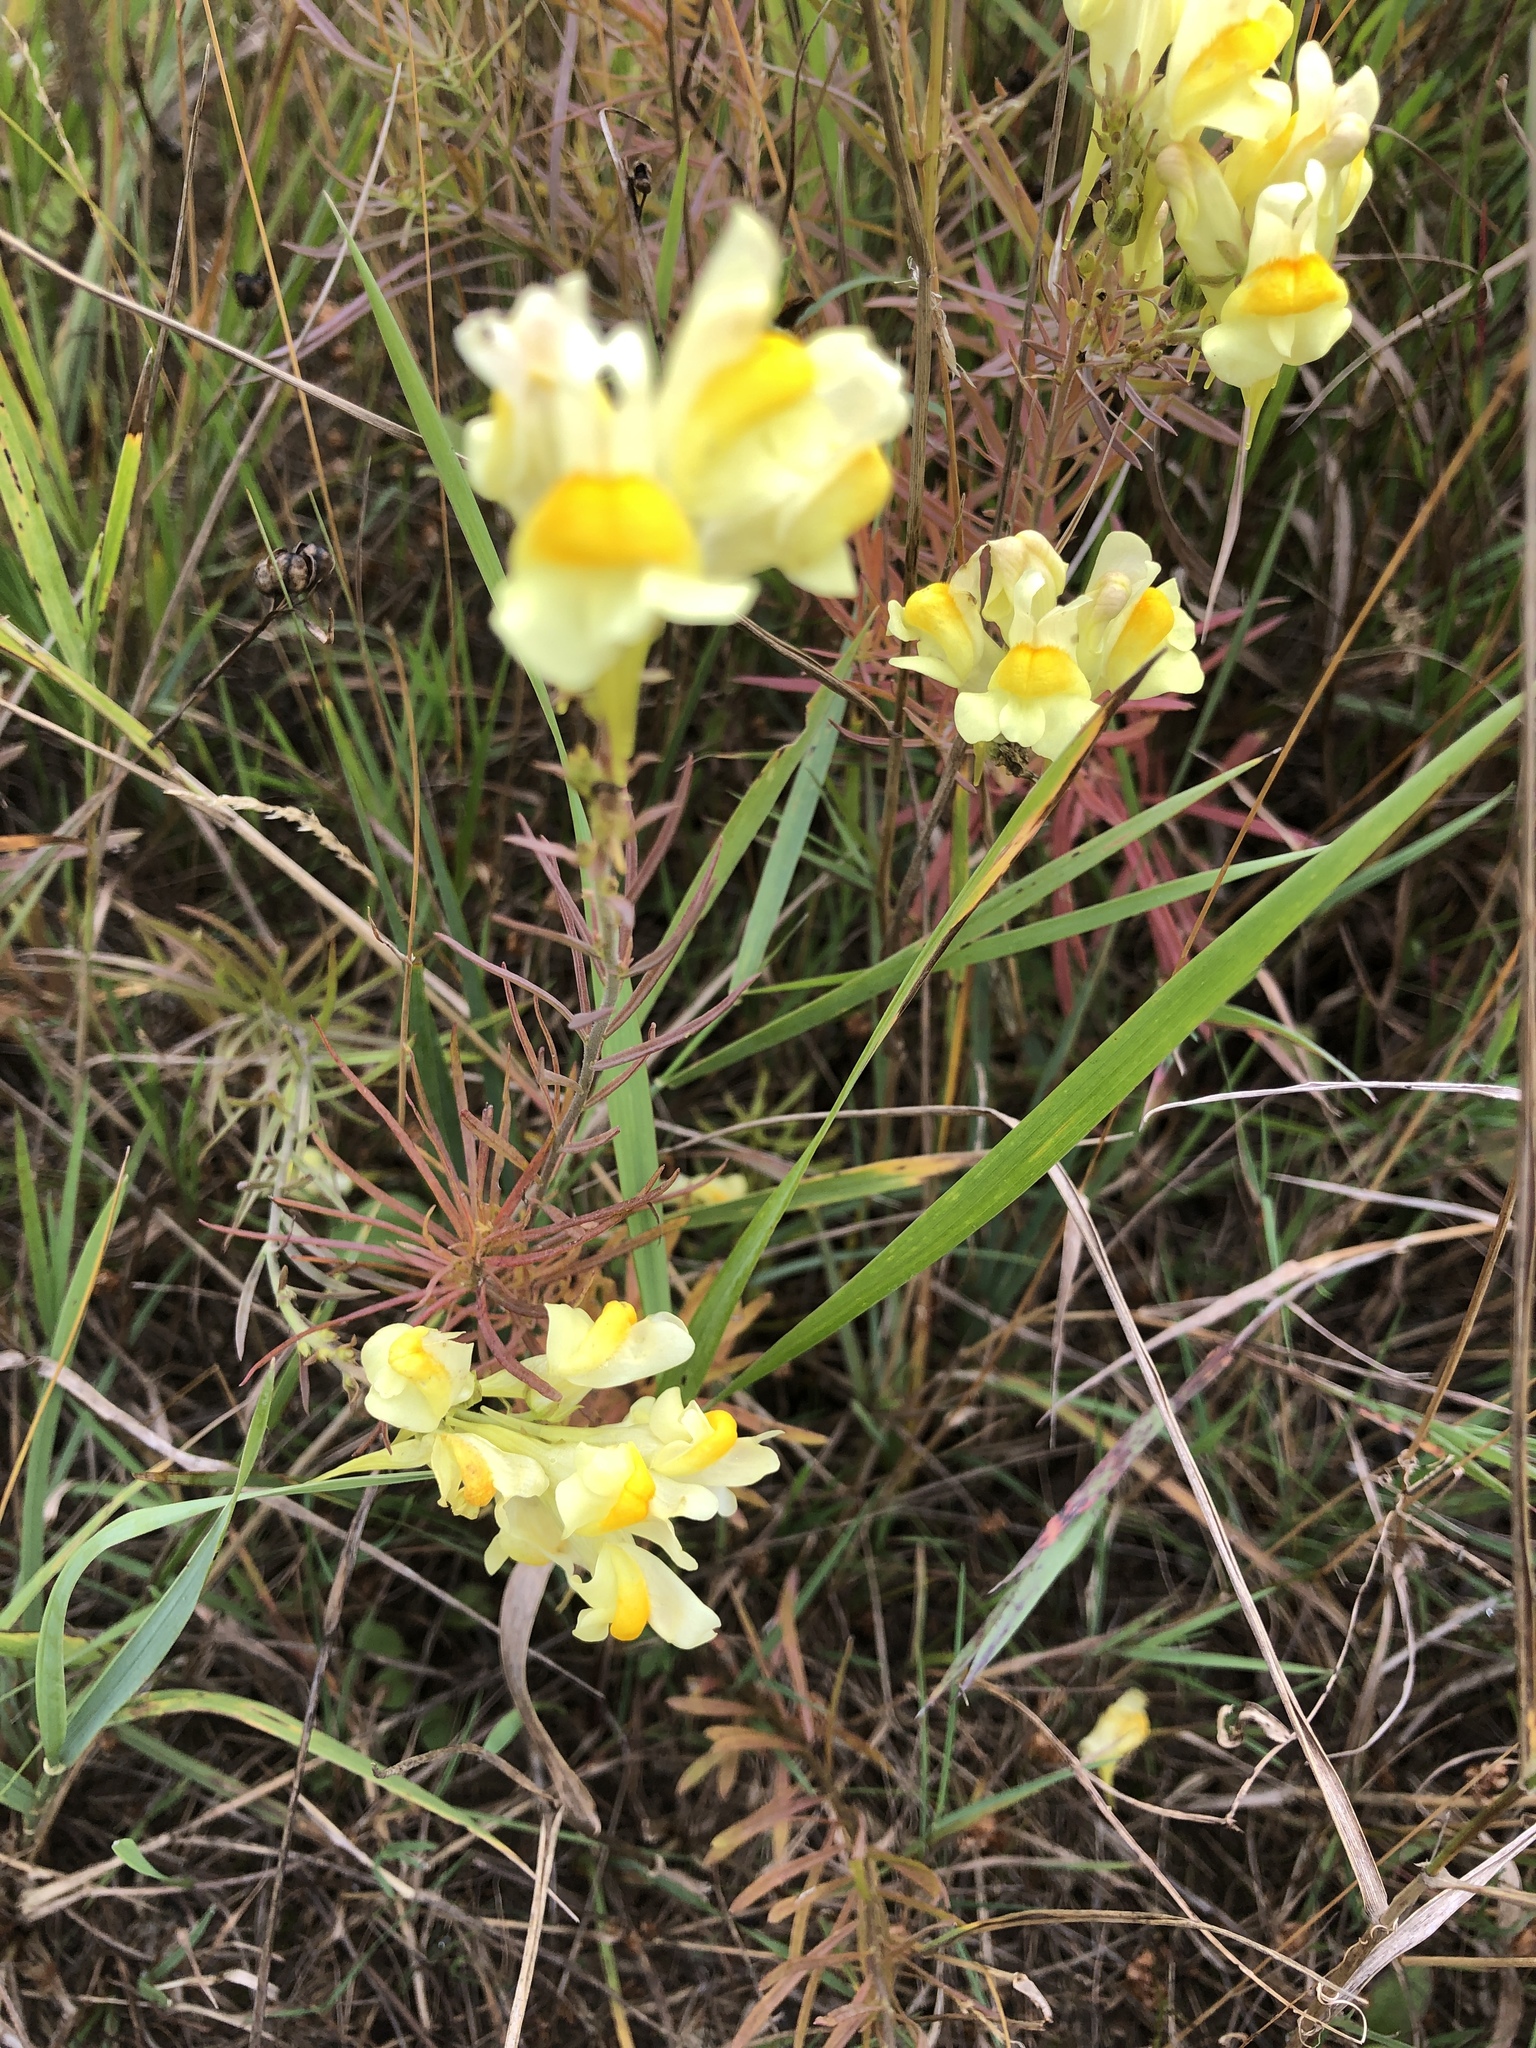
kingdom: Plantae
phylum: Tracheophyta
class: Magnoliopsida
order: Lamiales
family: Plantaginaceae
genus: Linaria
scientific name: Linaria vulgaris
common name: Butter and eggs
